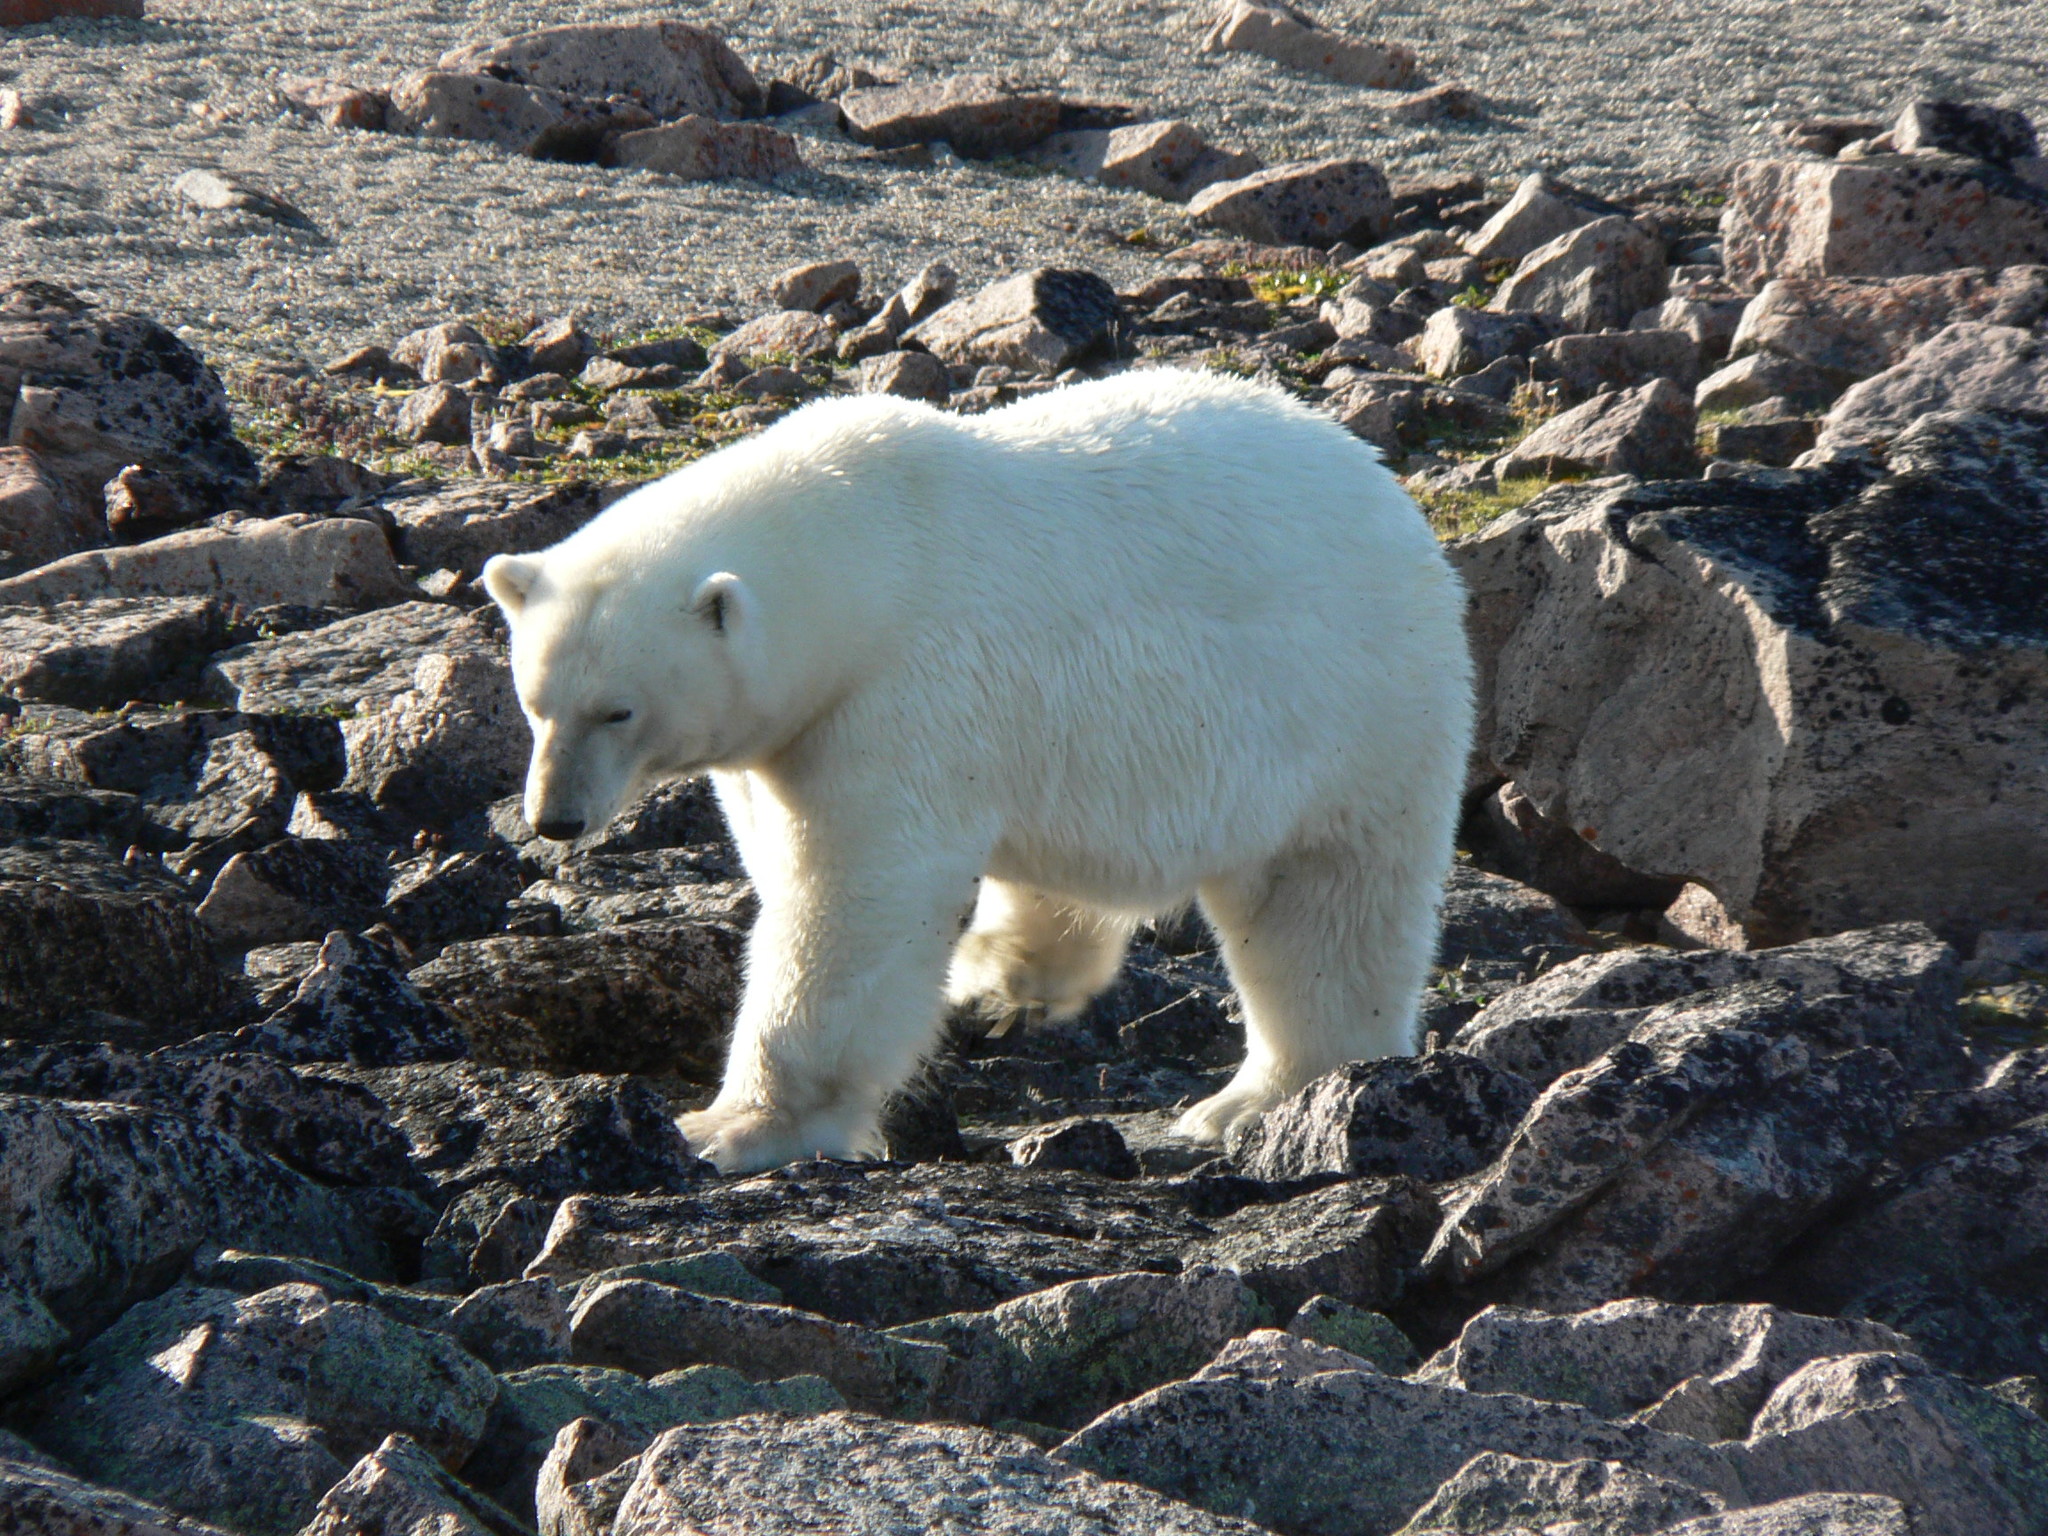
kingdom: Animalia
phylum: Chordata
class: Mammalia
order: Carnivora
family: Ursidae
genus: Ursus
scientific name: Ursus maritimus
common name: Polar bear
